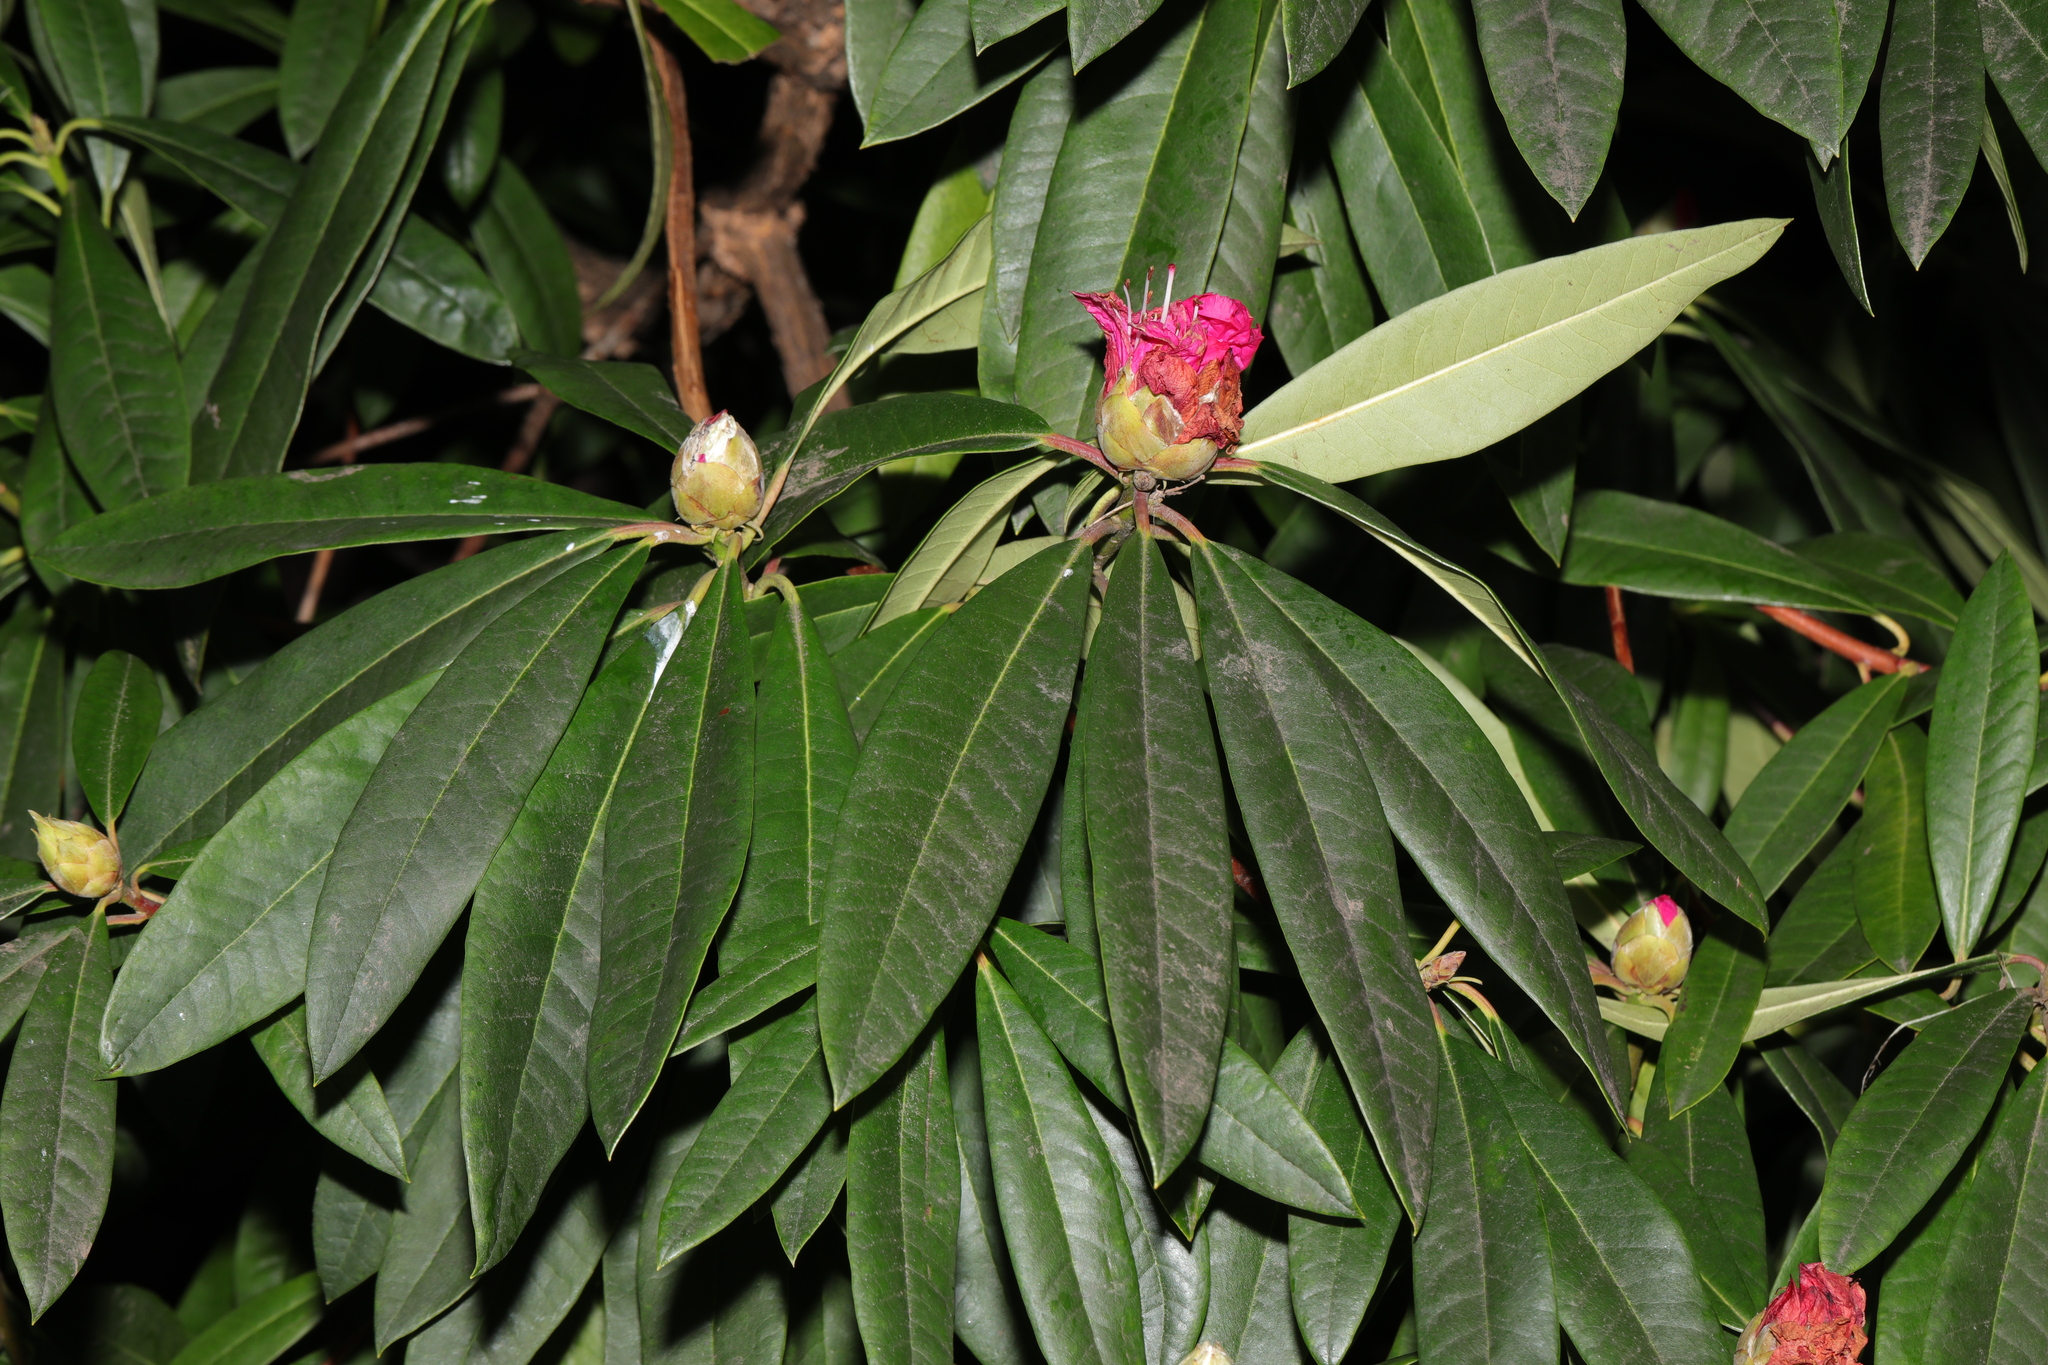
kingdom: Plantae
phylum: Tracheophyta
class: Magnoliopsida
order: Ericales
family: Ericaceae
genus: Rhododendron
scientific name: Rhododendron
